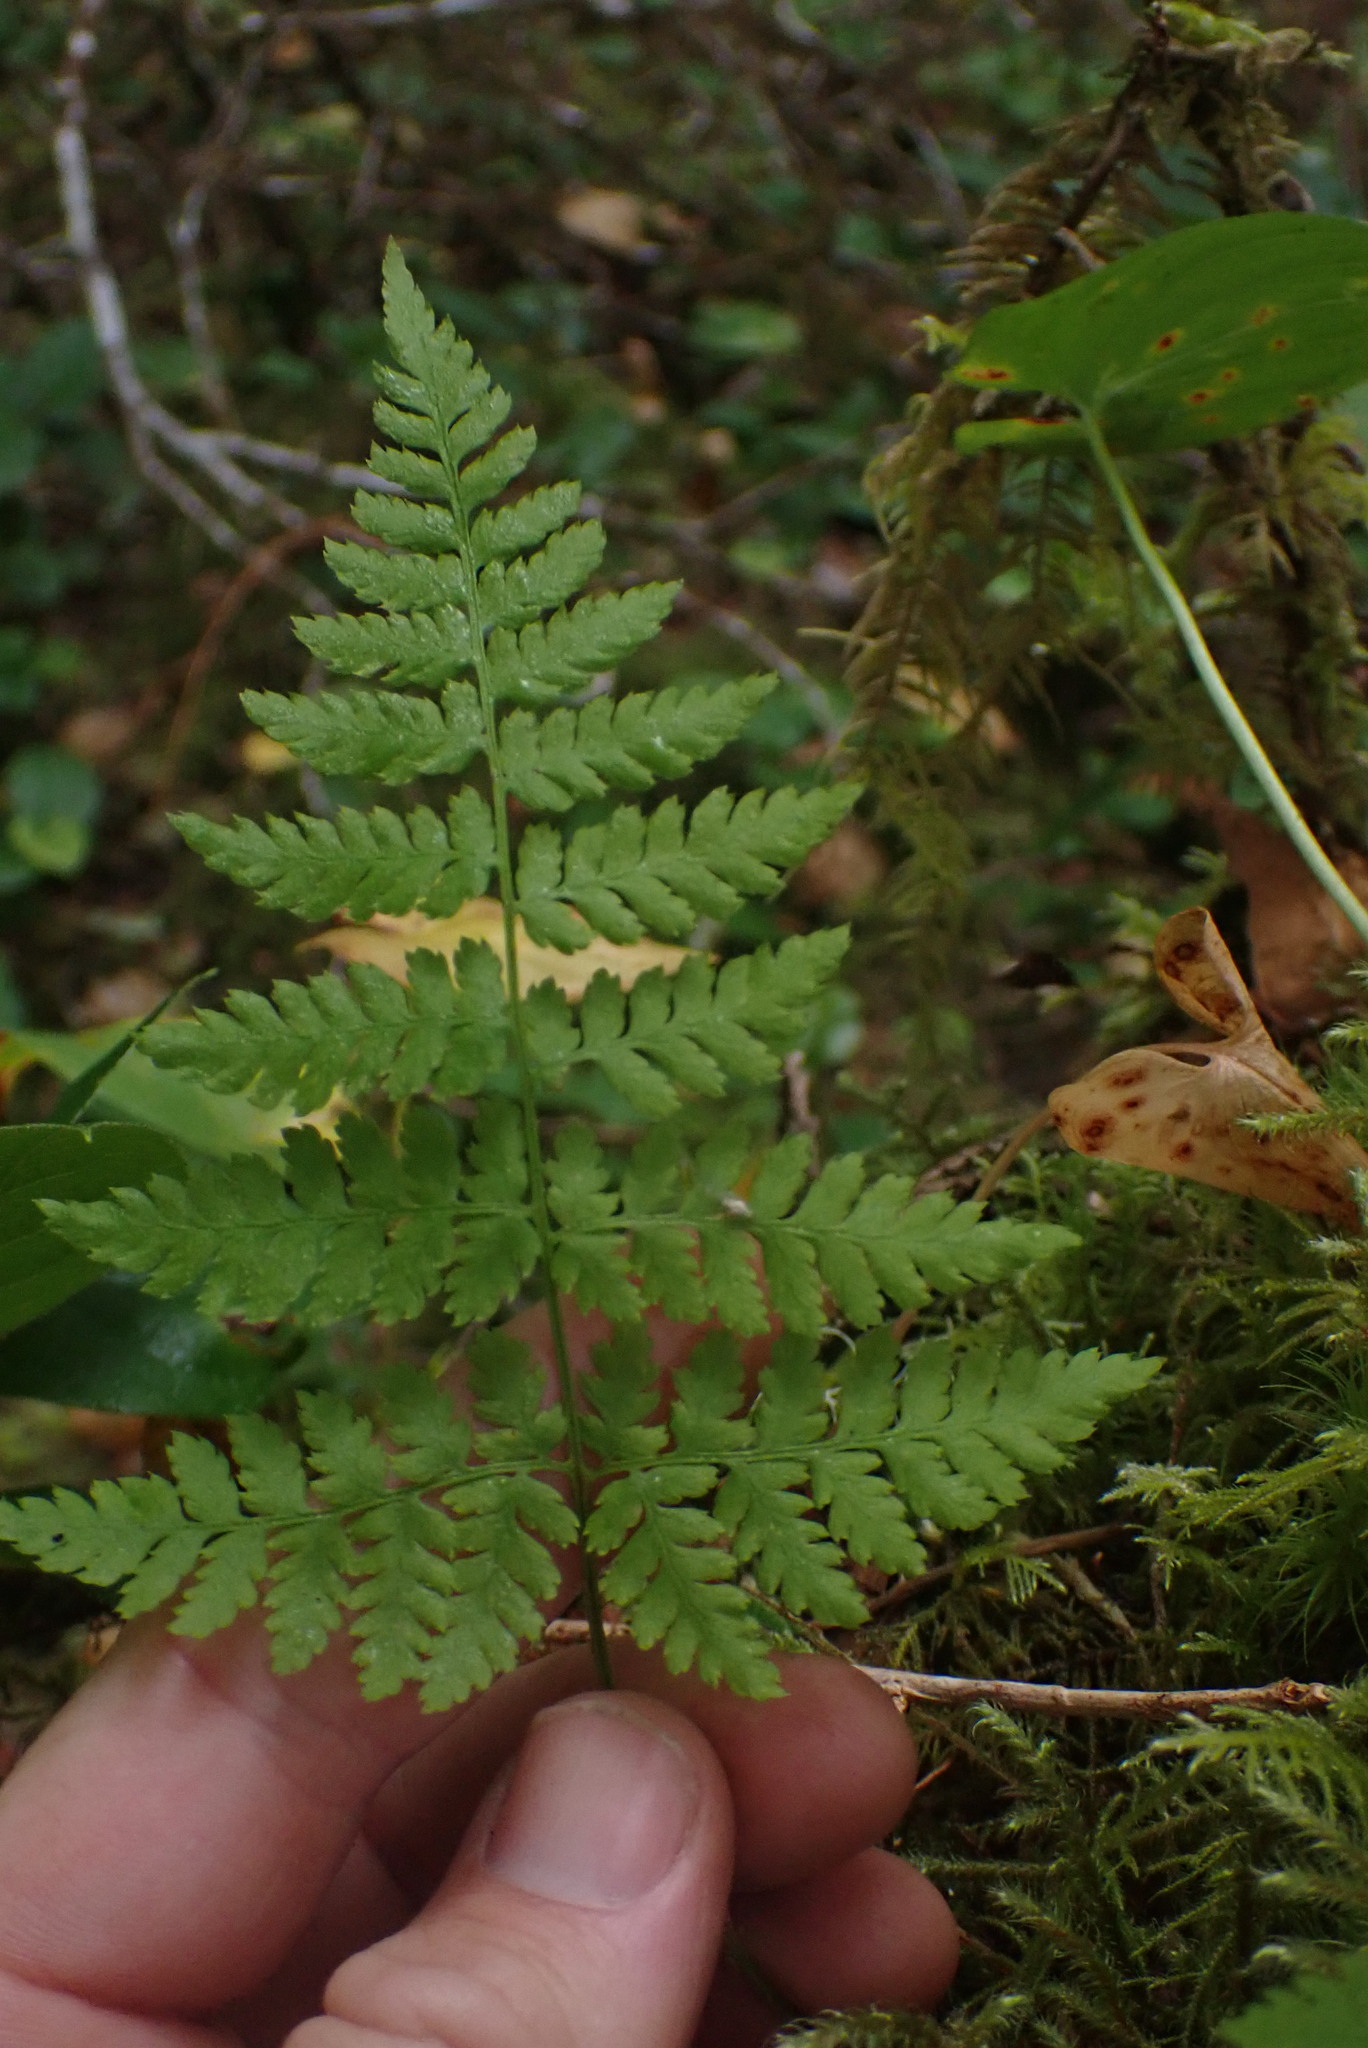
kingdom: Plantae
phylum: Tracheophyta
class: Polypodiopsida
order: Polypodiales
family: Dryopteridaceae
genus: Dryopteris
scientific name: Dryopteris expansa
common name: Northern buckler fern
